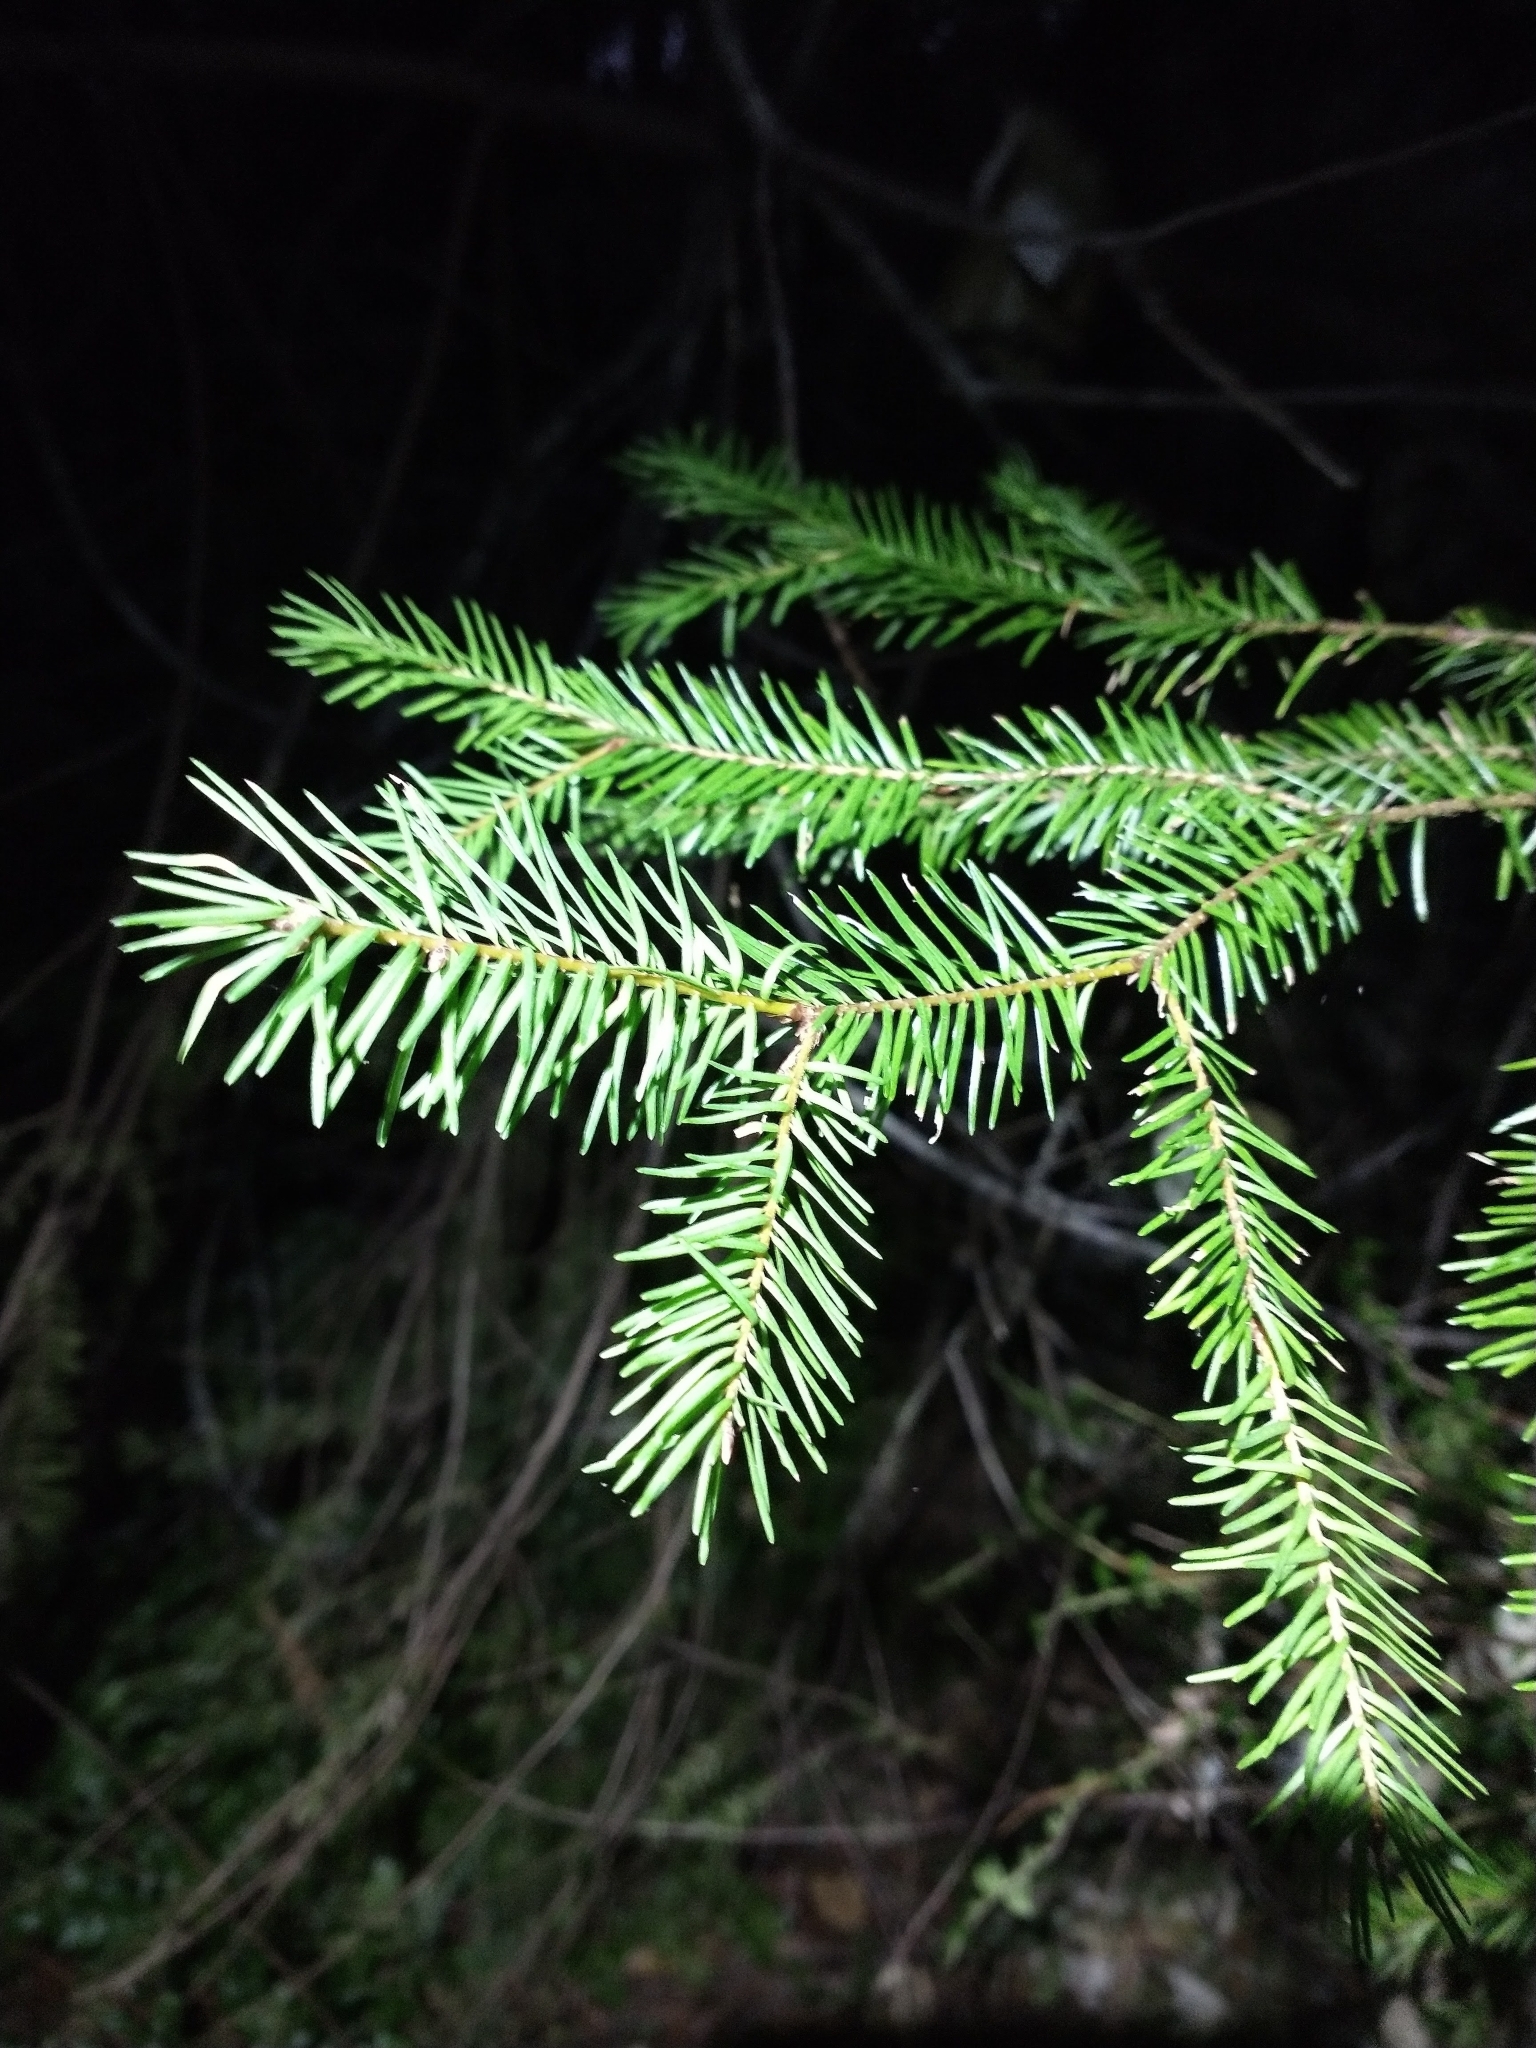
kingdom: Plantae
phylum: Tracheophyta
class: Pinopsida
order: Pinales
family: Pinaceae
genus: Pseudotsuga
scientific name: Pseudotsuga menziesii
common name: Douglas fir
